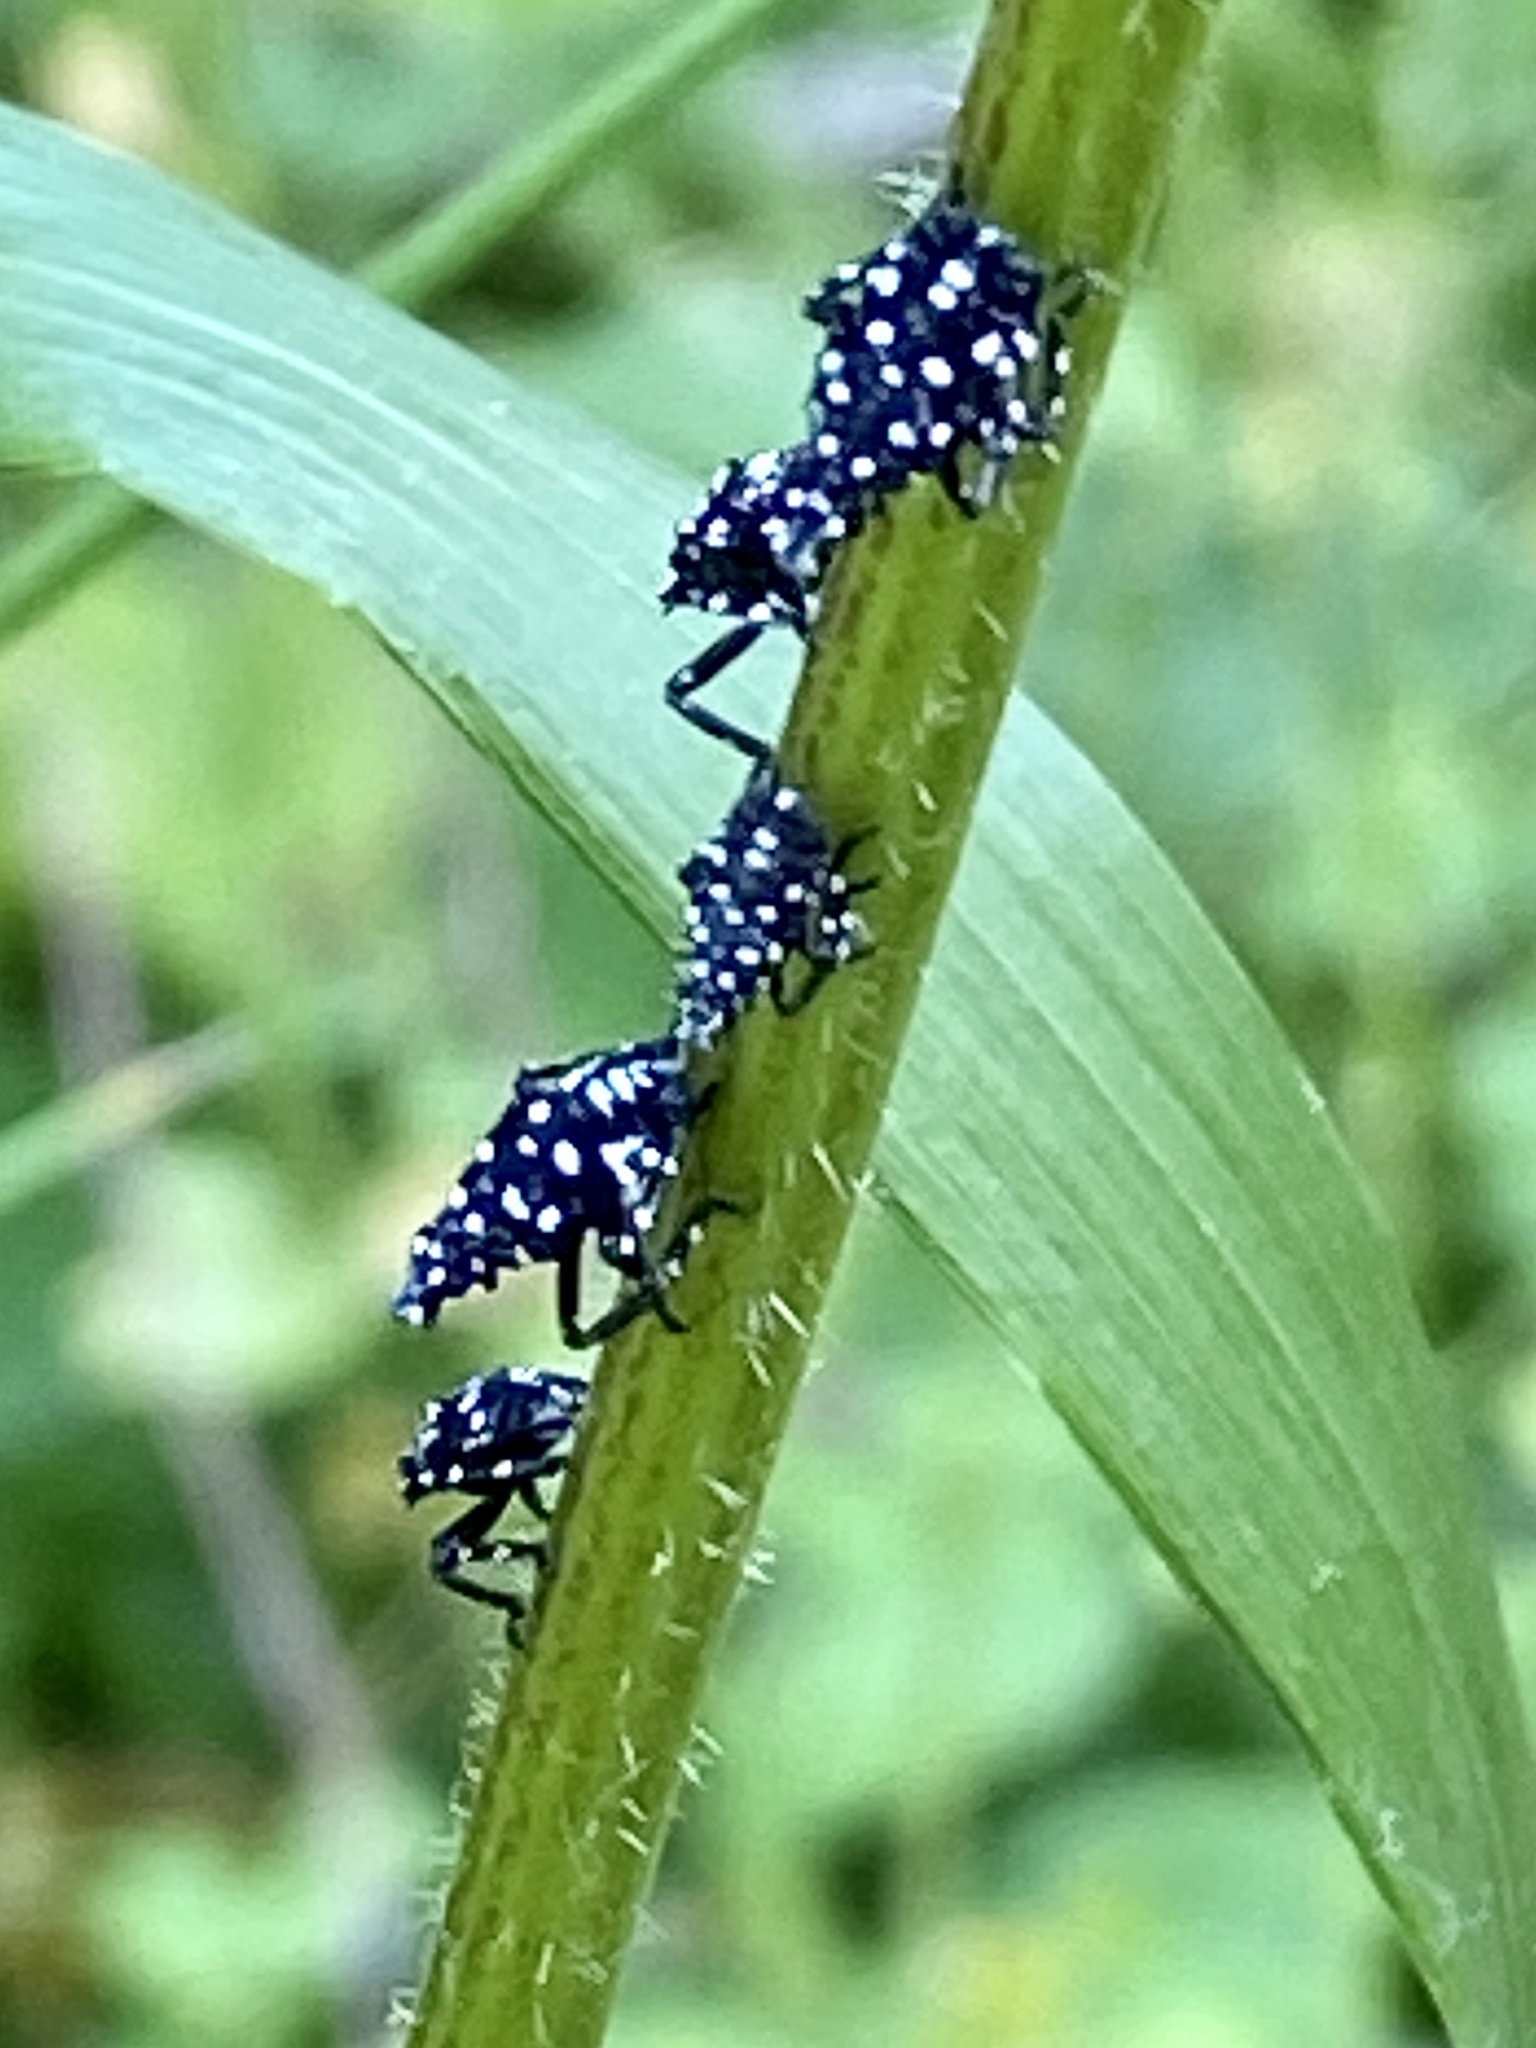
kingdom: Animalia
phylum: Arthropoda
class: Insecta
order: Hemiptera
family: Fulgoridae
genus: Lycorma
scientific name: Lycorma delicatula
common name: Spotted lanternfly
